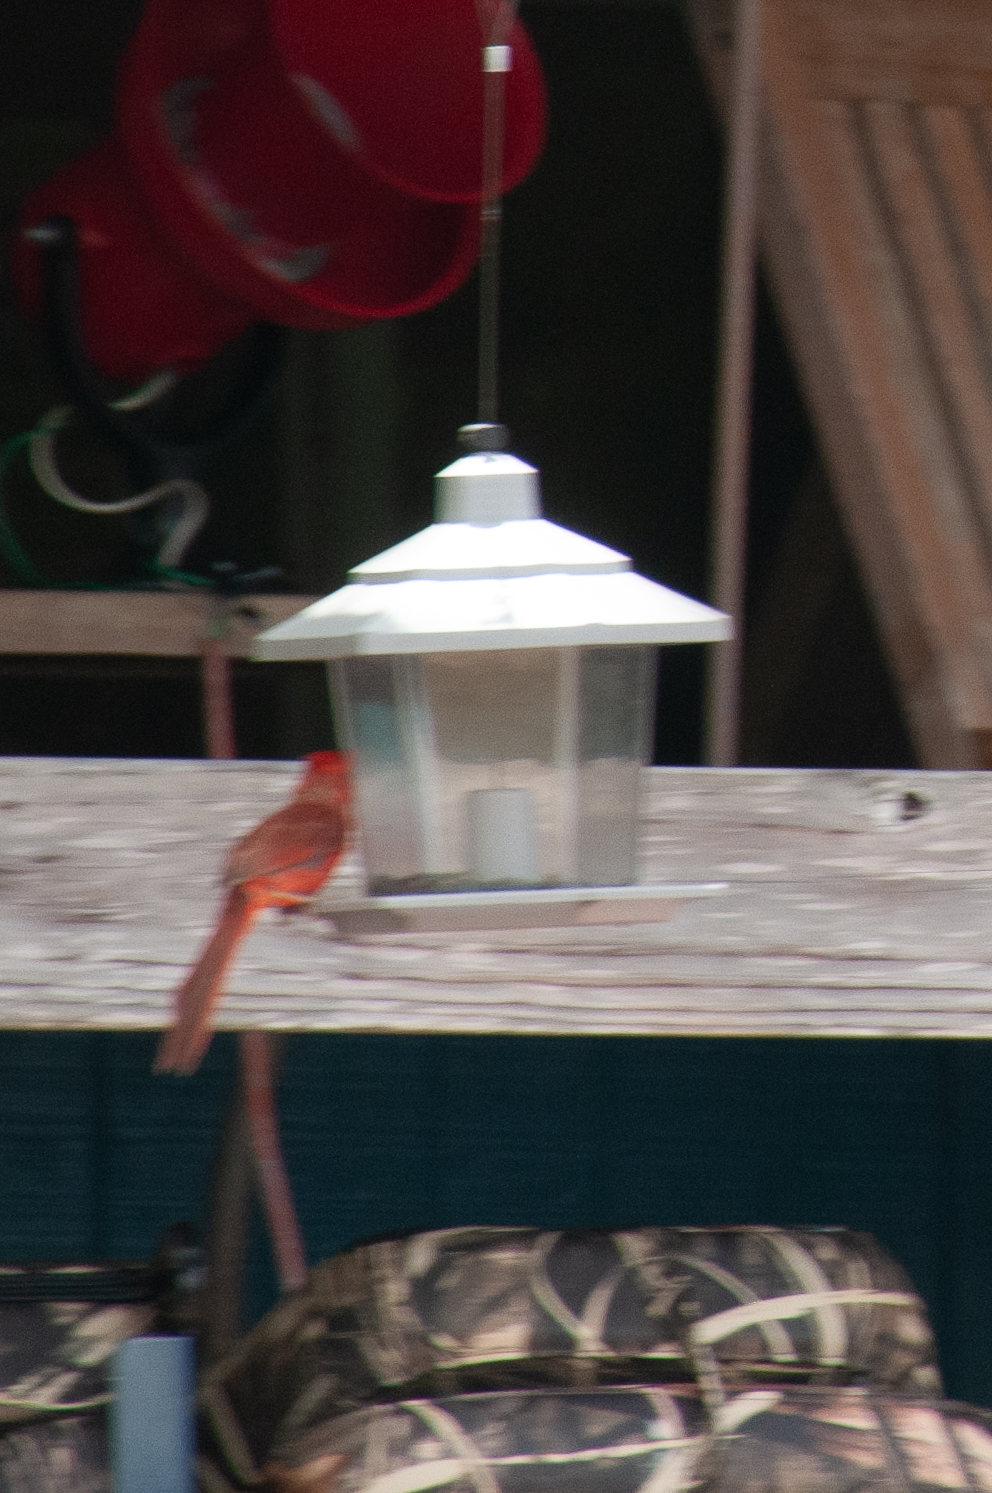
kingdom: Animalia
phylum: Chordata
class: Aves
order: Passeriformes
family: Cardinalidae
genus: Cardinalis
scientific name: Cardinalis cardinalis
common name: Northern cardinal
